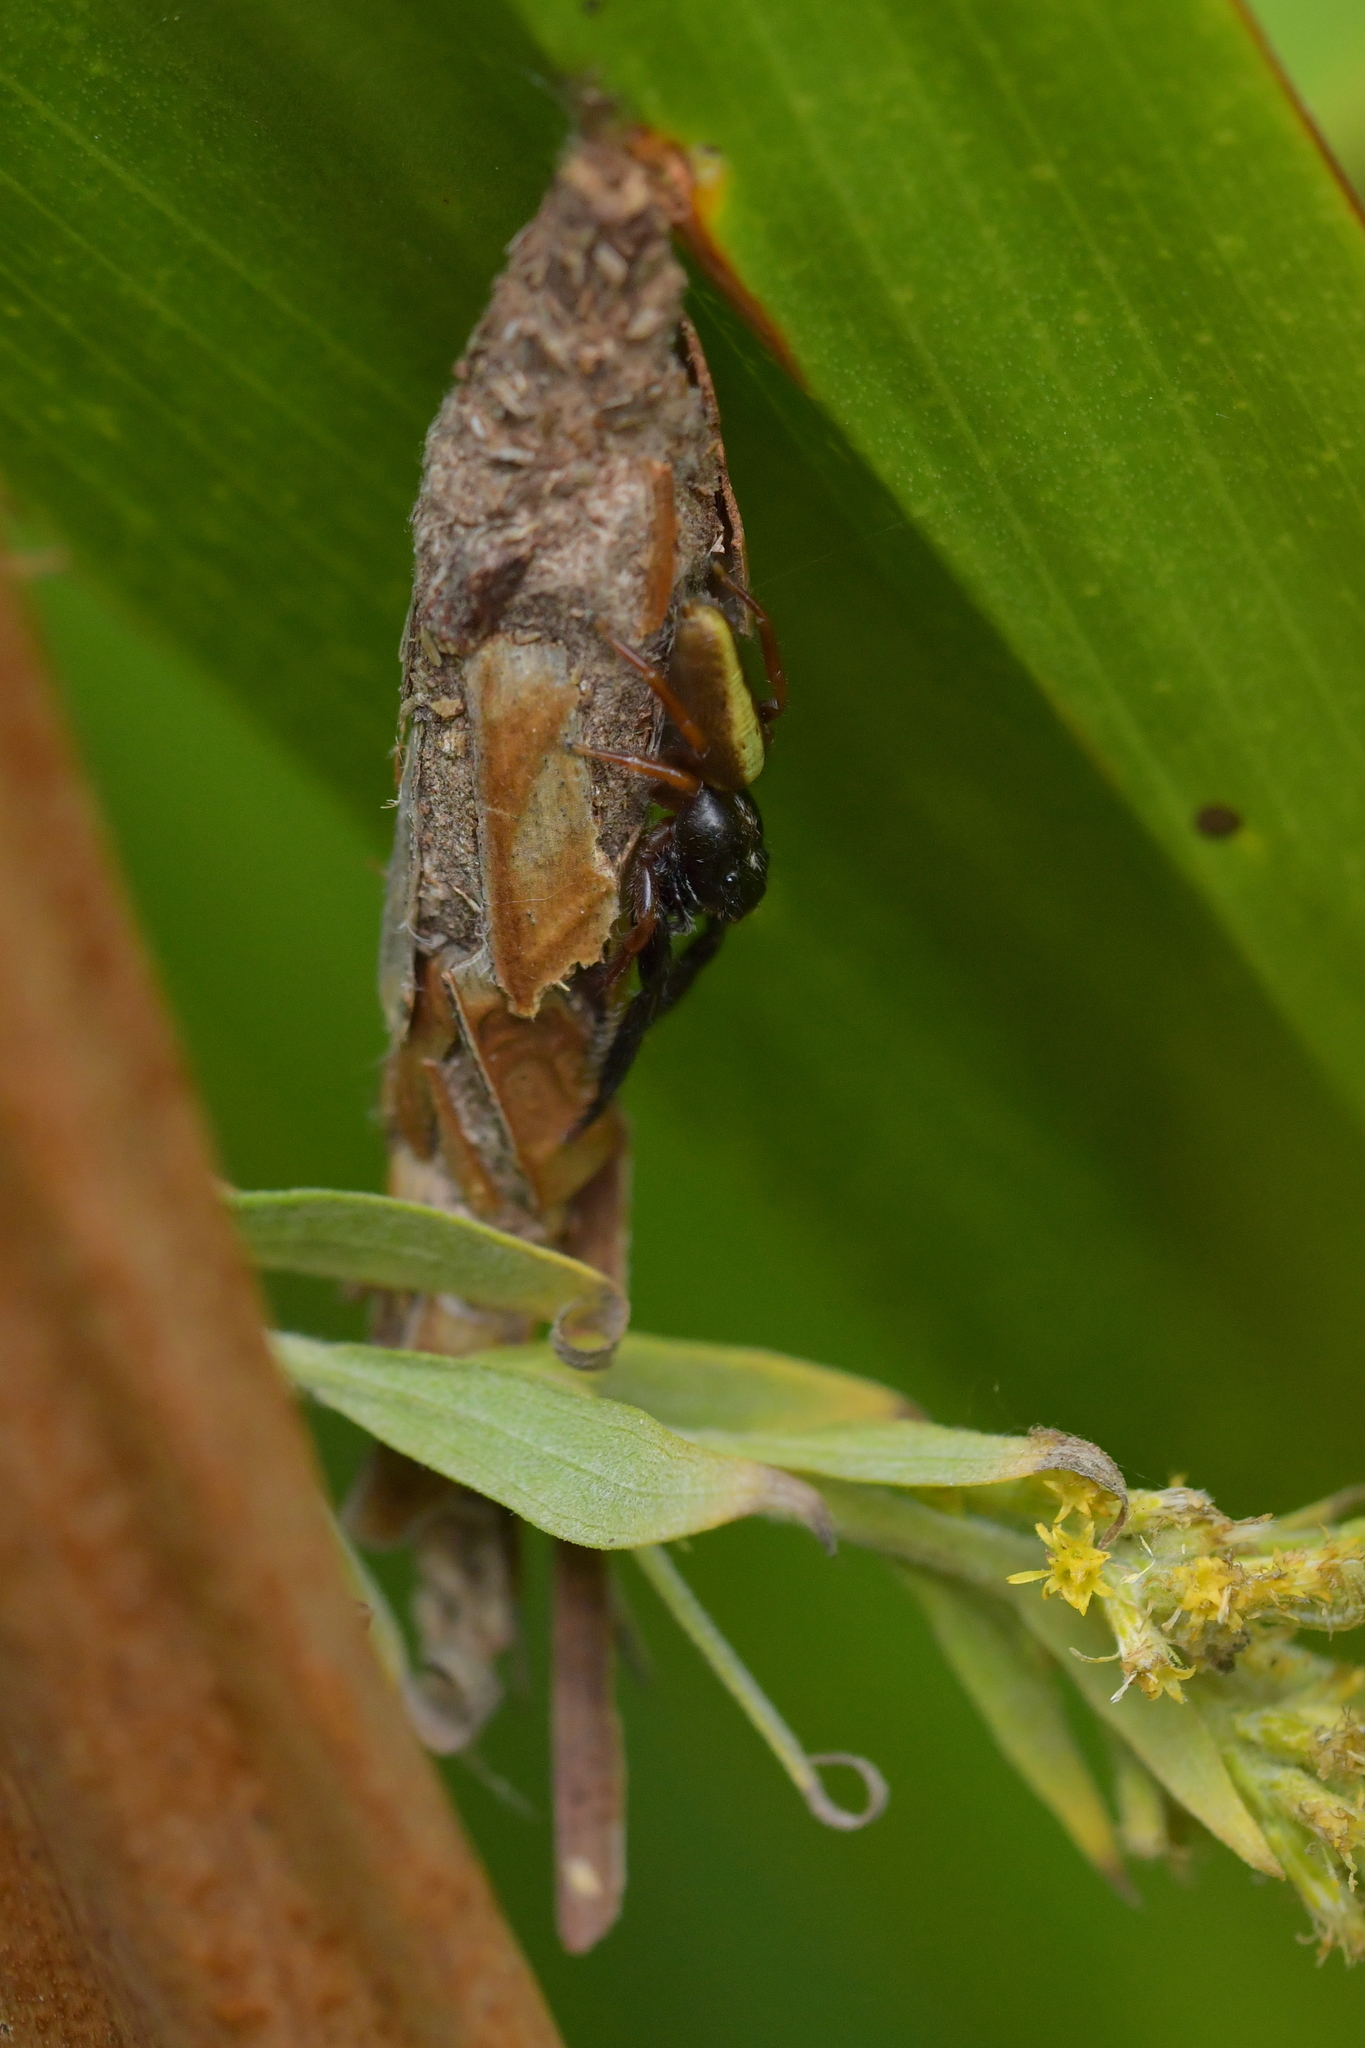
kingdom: Animalia
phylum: Arthropoda
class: Arachnida
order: Araneae
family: Salticidae
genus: Trite
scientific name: Trite planiceps
